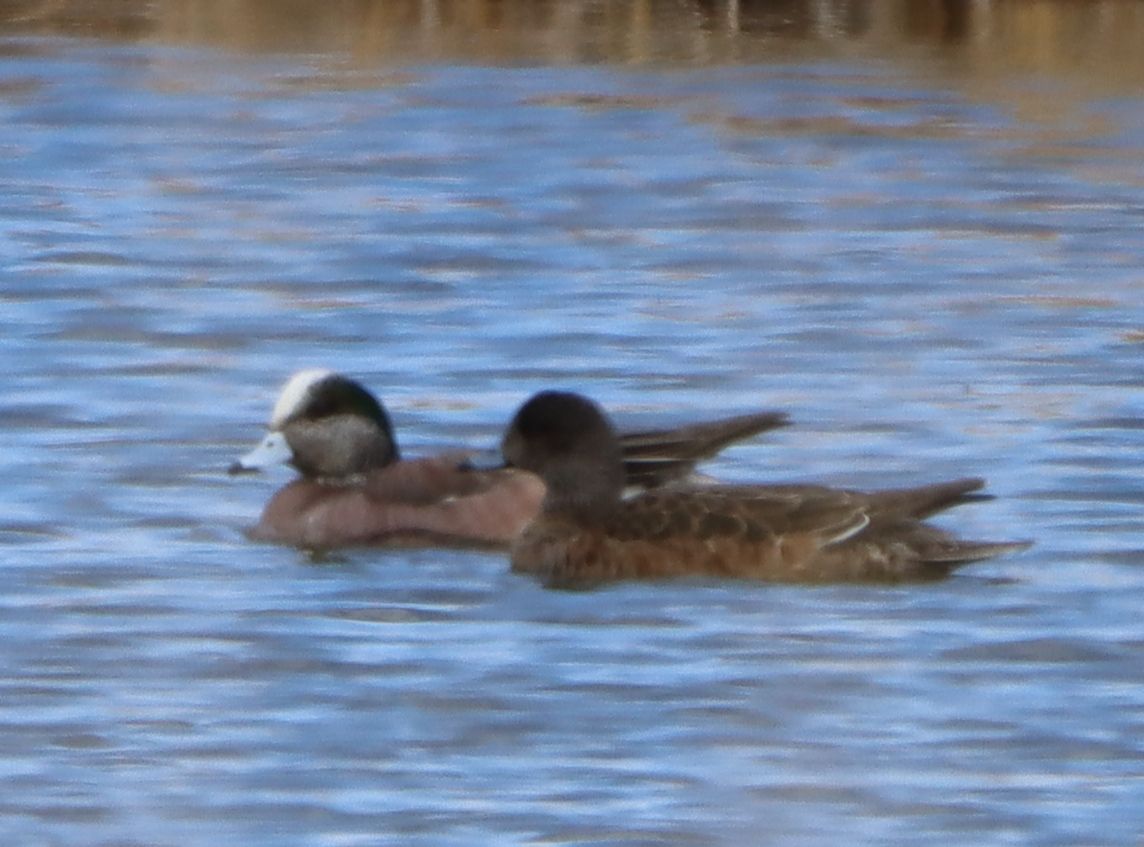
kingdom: Animalia
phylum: Chordata
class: Aves
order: Anseriformes
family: Anatidae
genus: Mareca
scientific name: Mareca americana
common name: American wigeon
